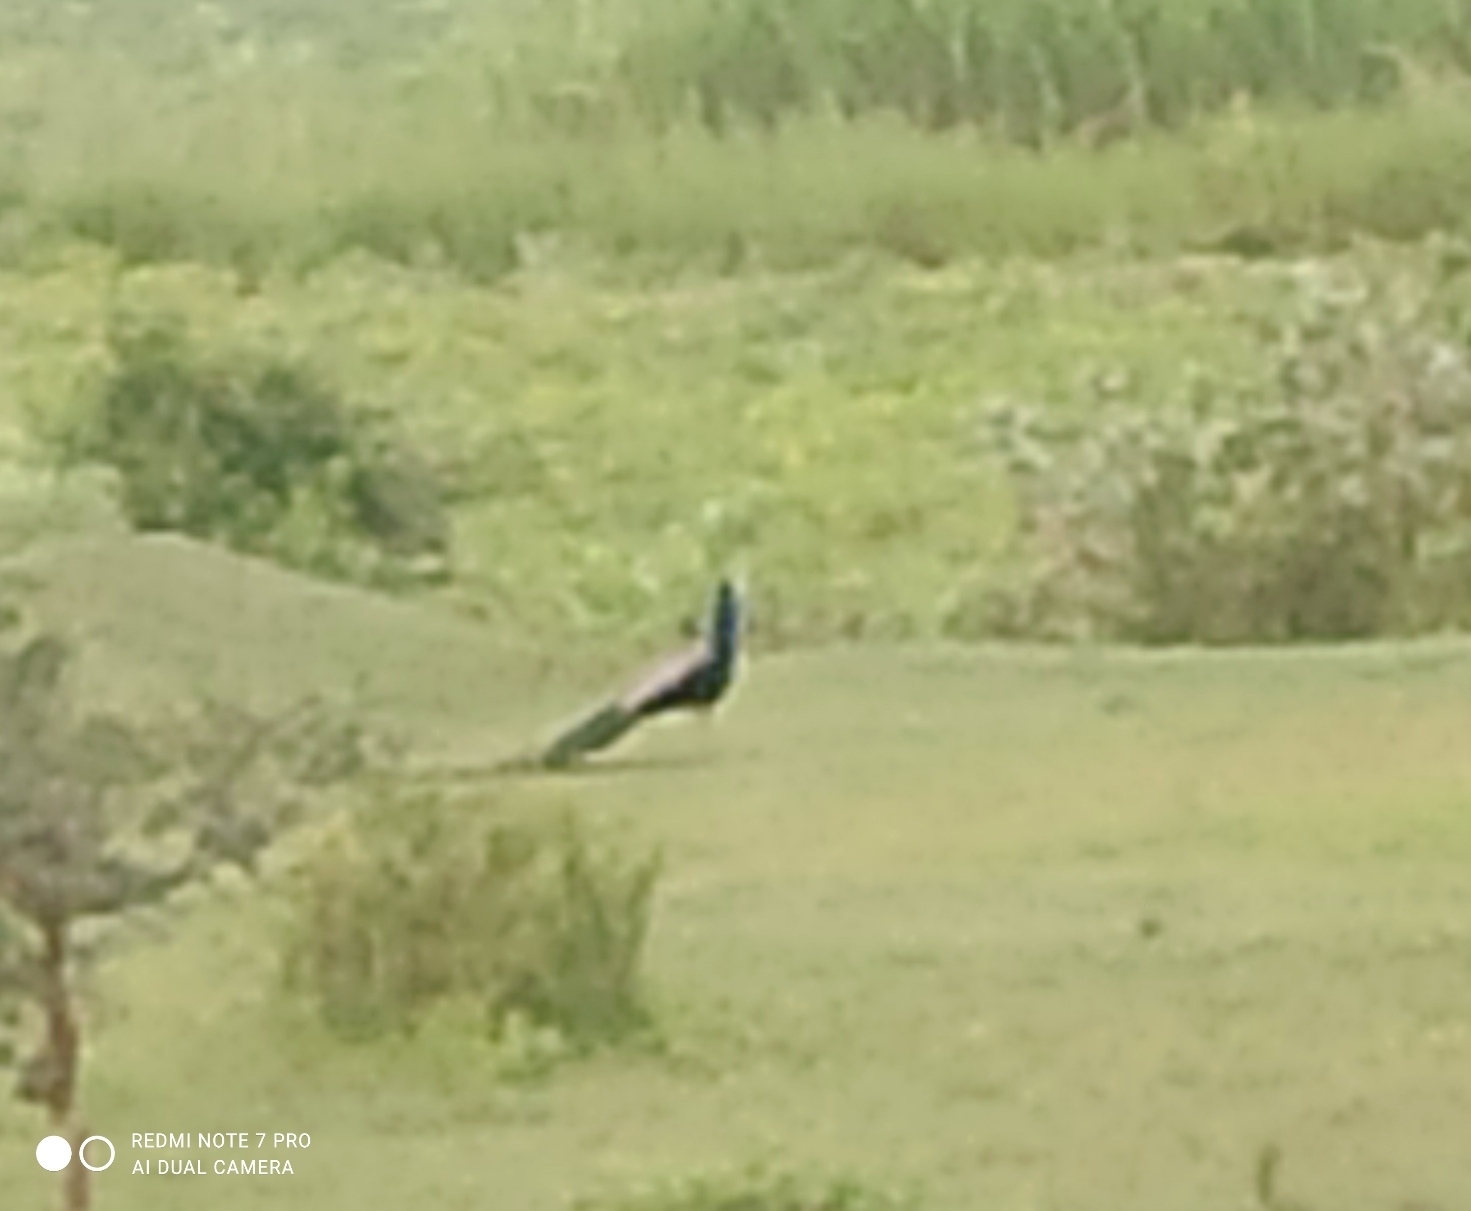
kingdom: Animalia
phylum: Chordata
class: Aves
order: Galliformes
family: Phasianidae
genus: Pavo
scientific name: Pavo cristatus
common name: Indian peafowl
